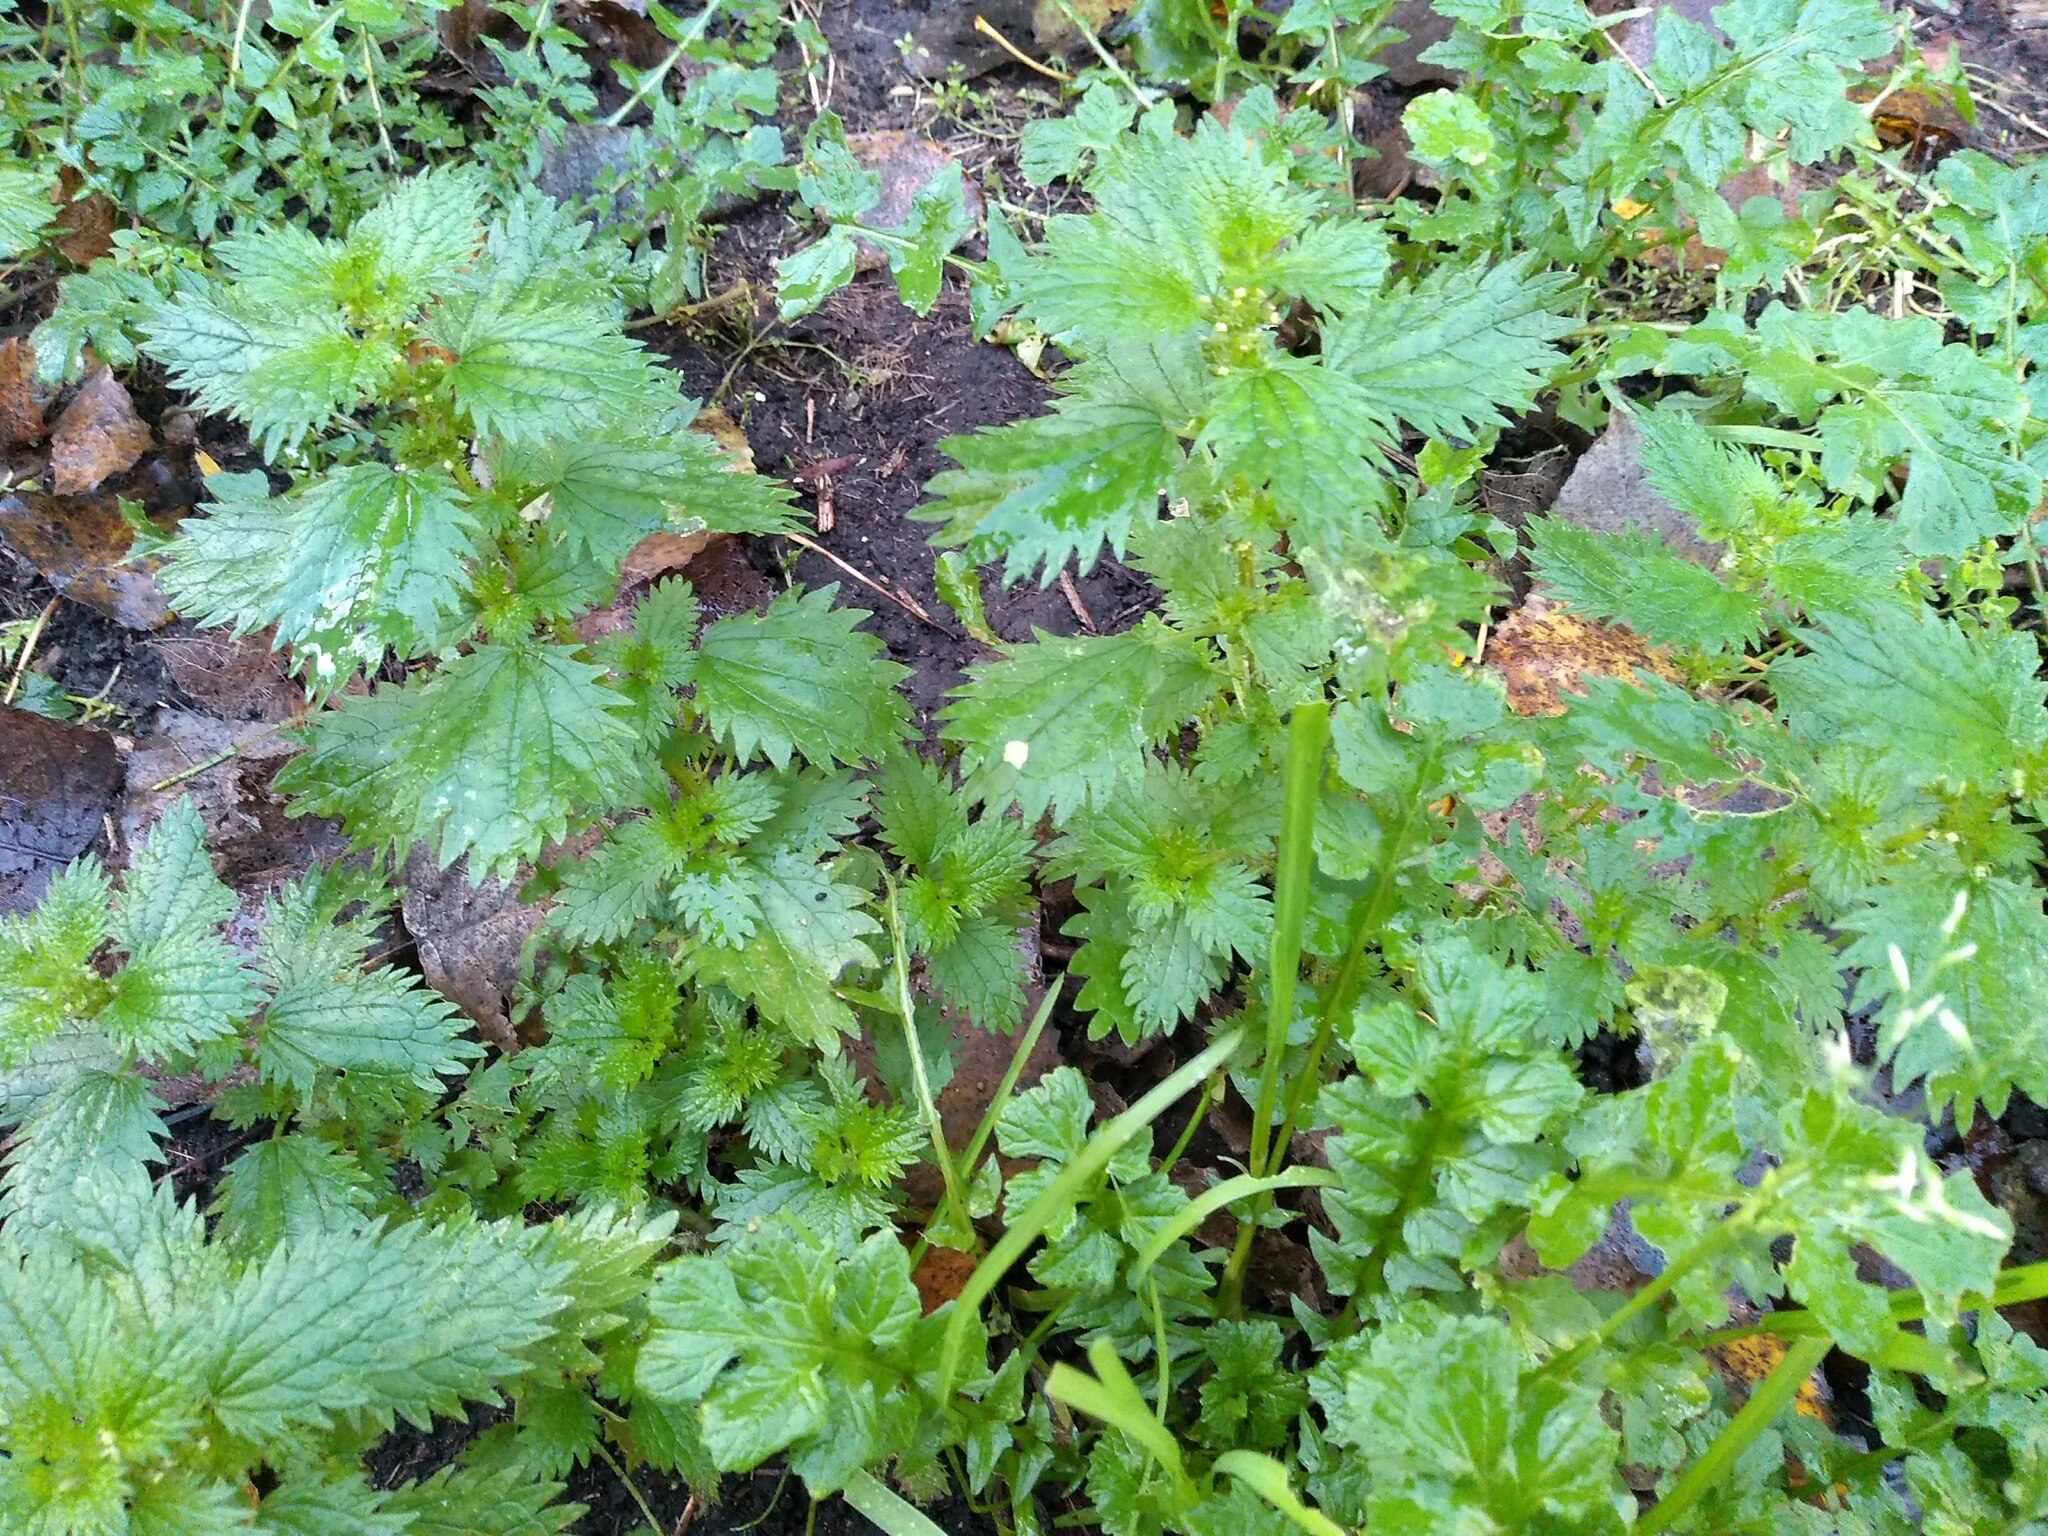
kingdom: Plantae
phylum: Tracheophyta
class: Magnoliopsida
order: Rosales
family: Urticaceae
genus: Urtica
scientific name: Urtica urens
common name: Dwarf nettle
